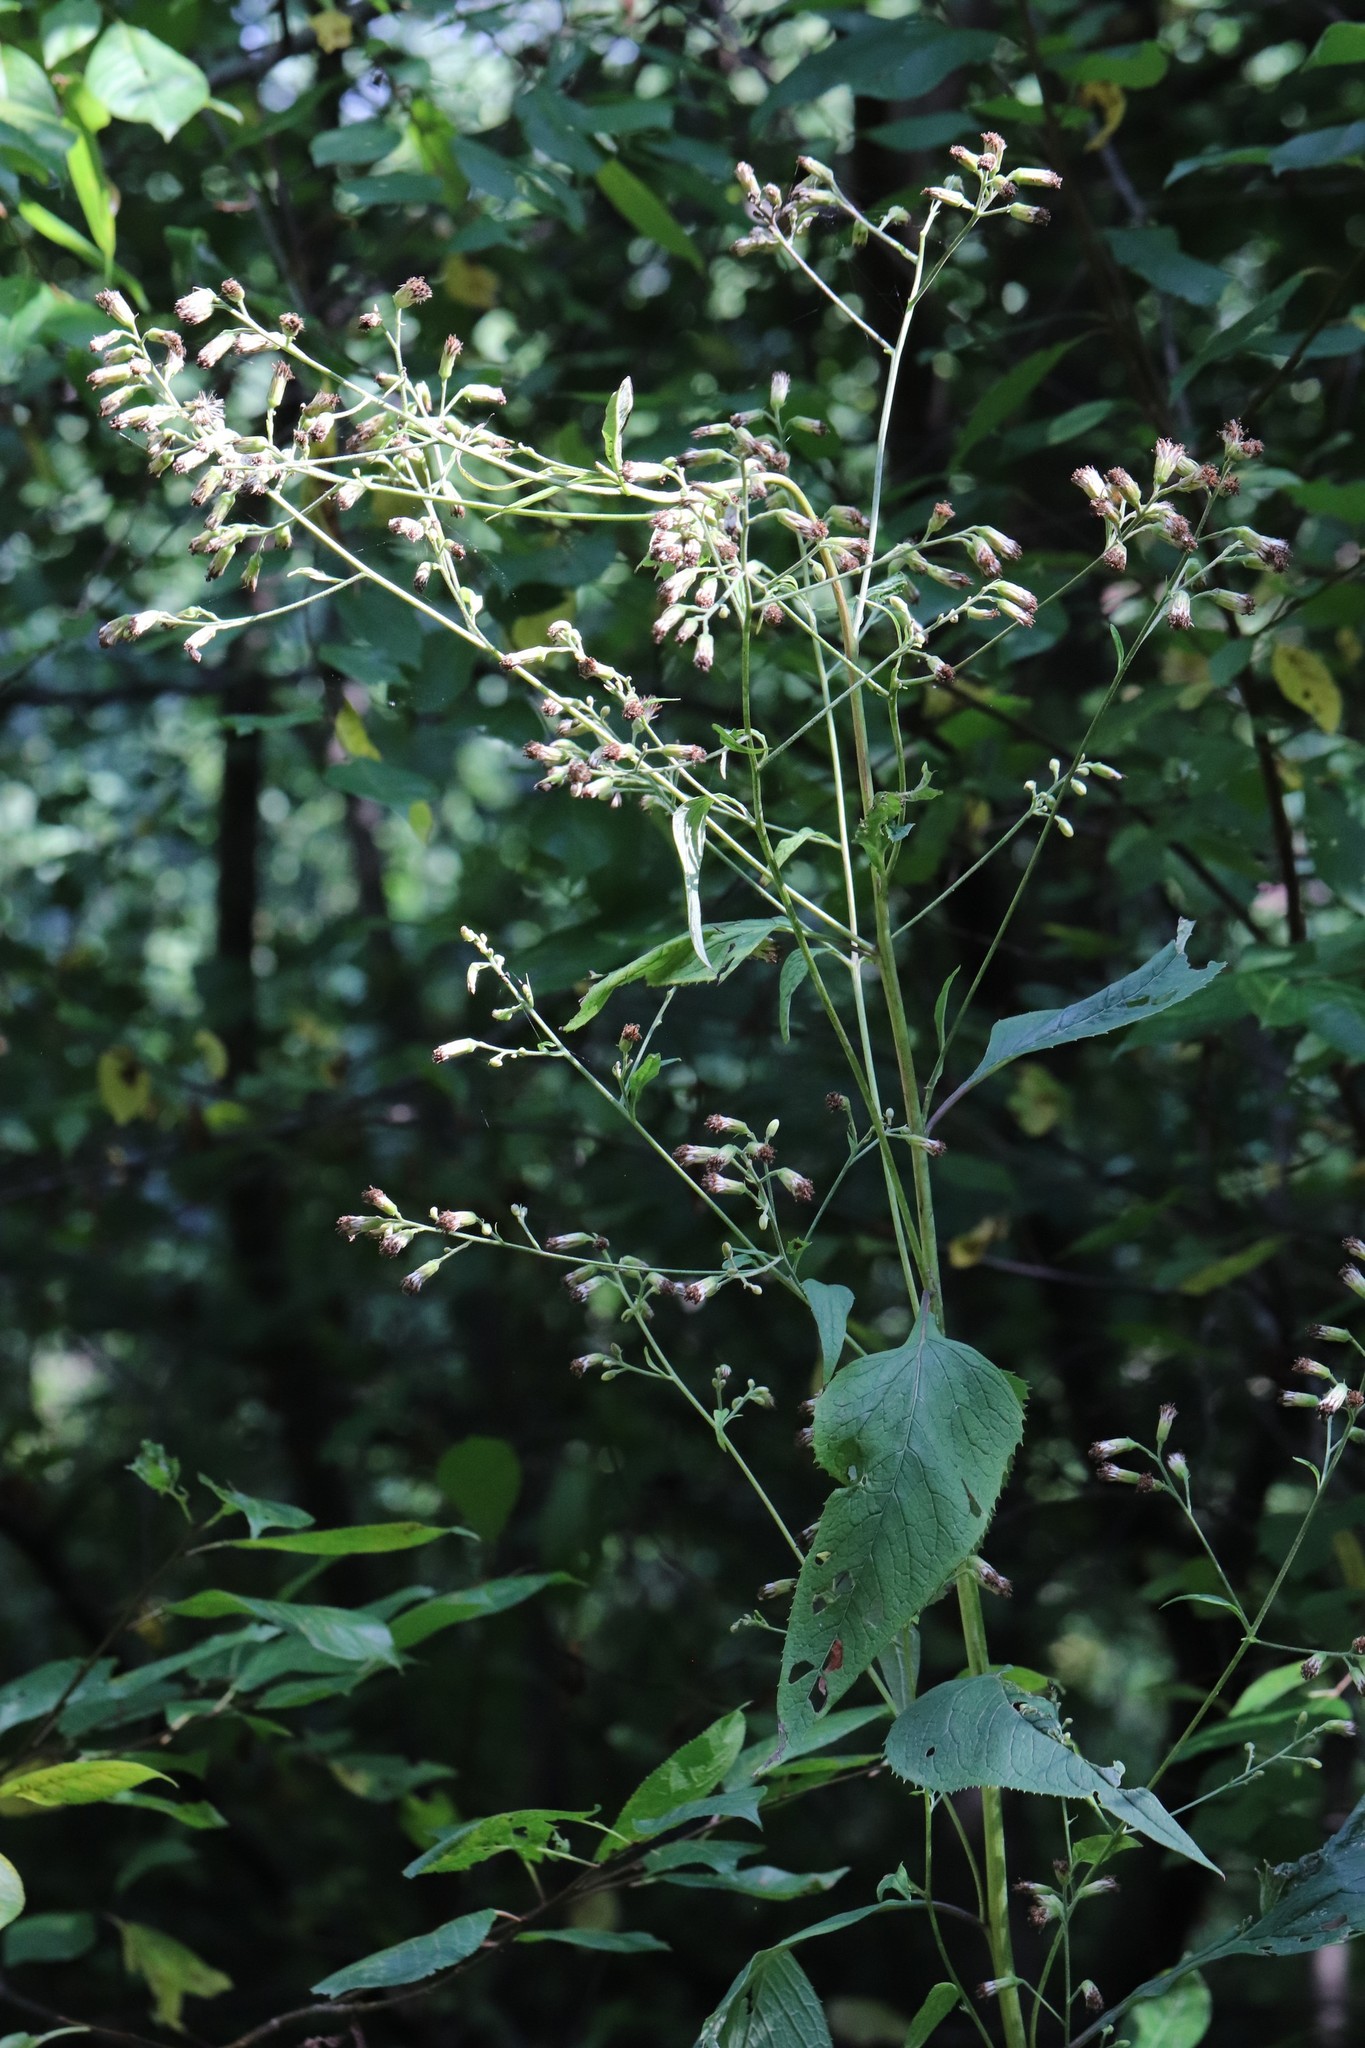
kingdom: Plantae
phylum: Tracheophyta
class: Magnoliopsida
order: Asterales
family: Asteraceae
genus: Parasenecio
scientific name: Parasenecio hastatus
